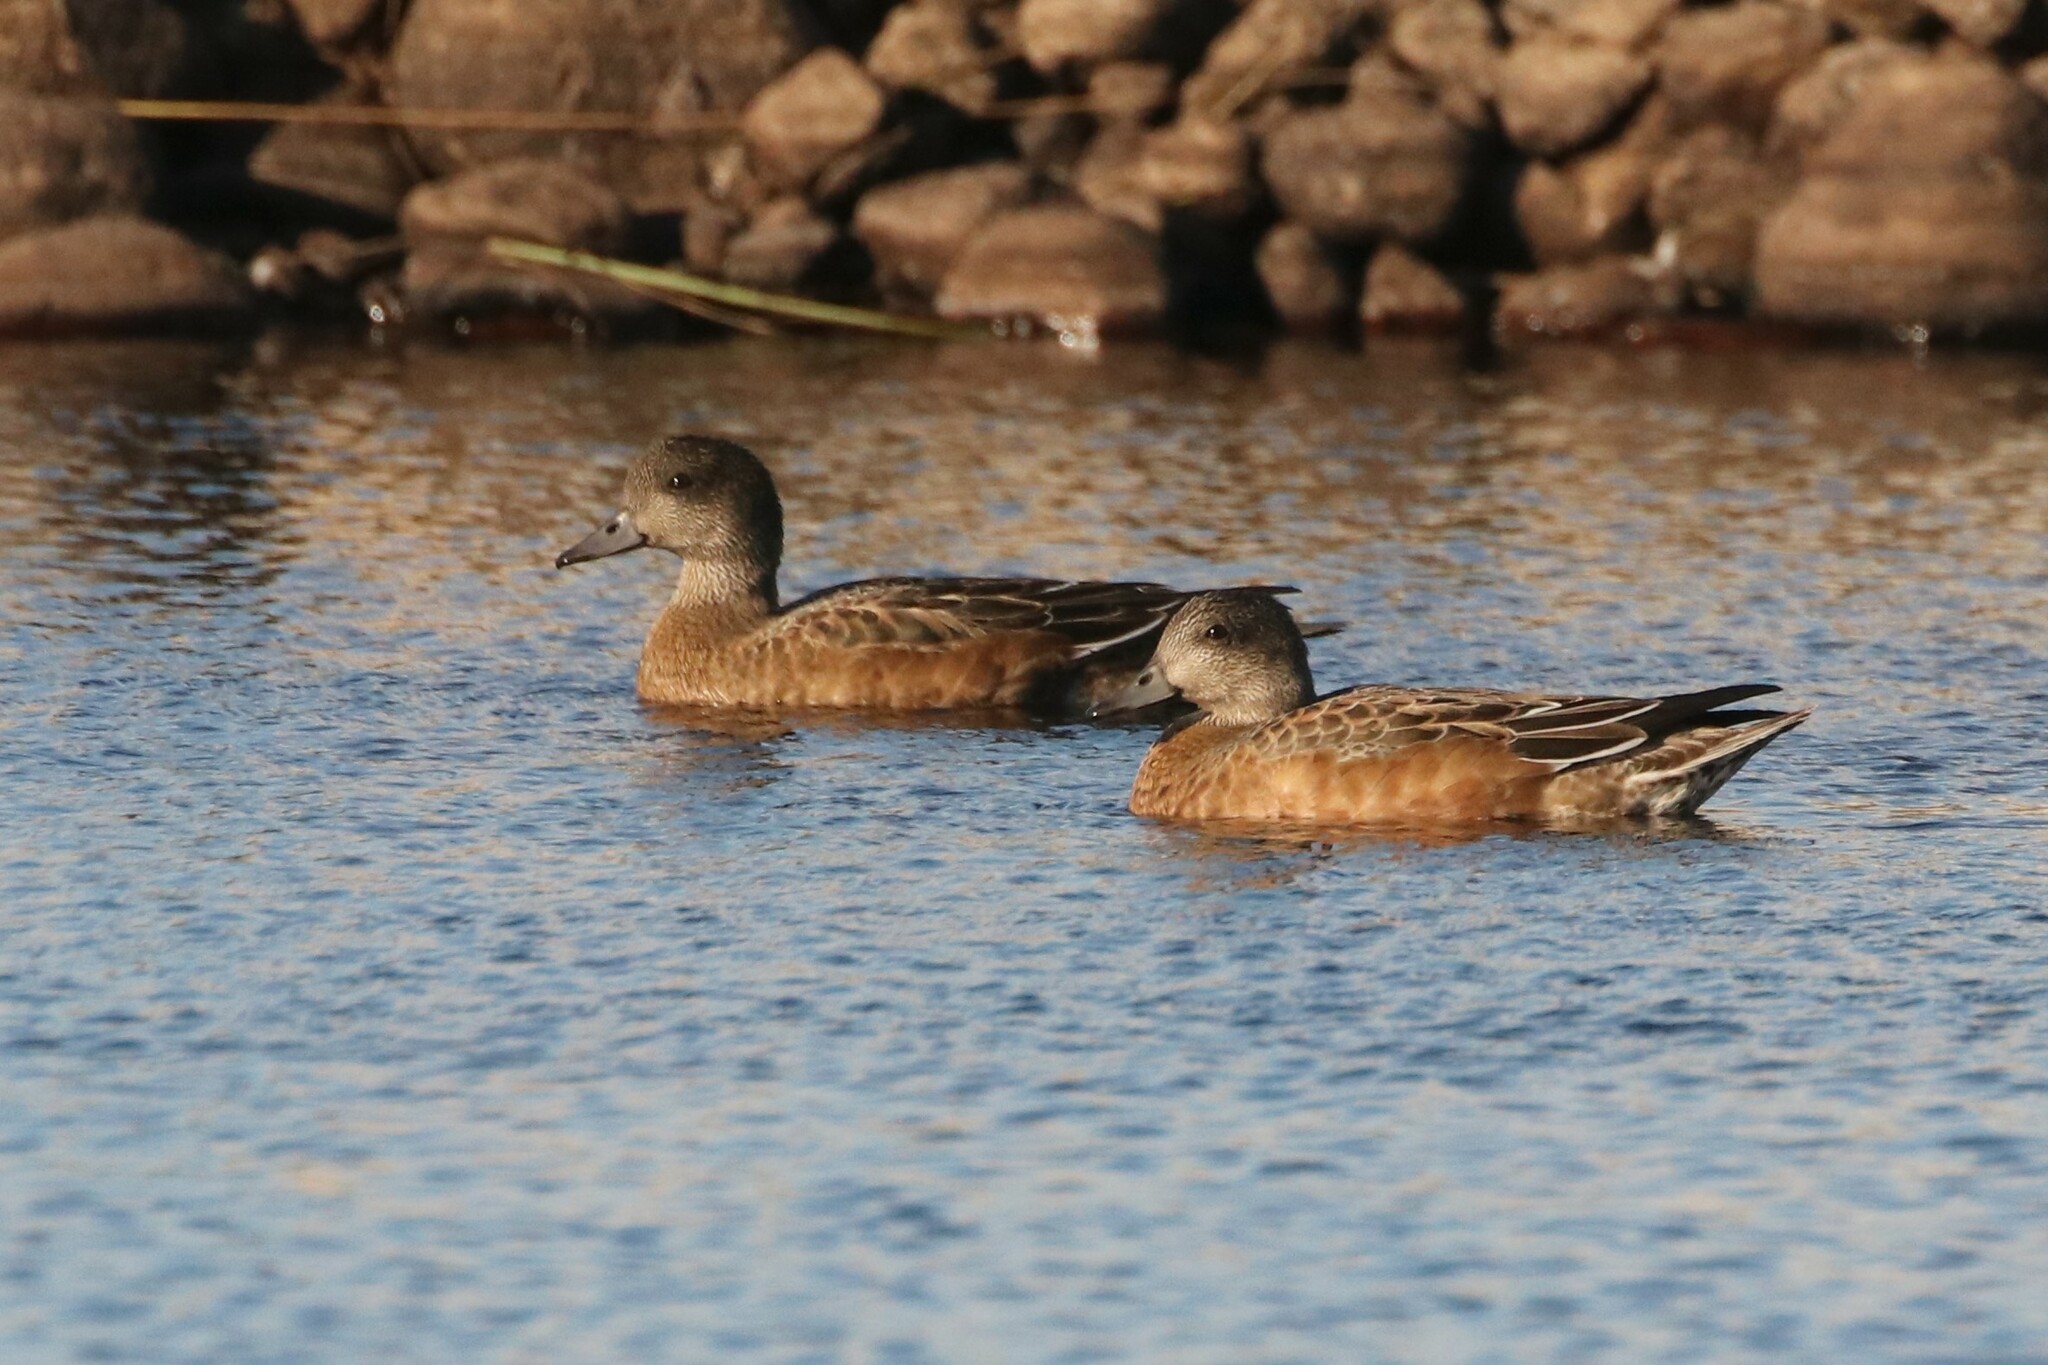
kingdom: Animalia
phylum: Chordata
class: Aves
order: Anseriformes
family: Anatidae
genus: Mareca
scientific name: Mareca americana
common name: American wigeon
